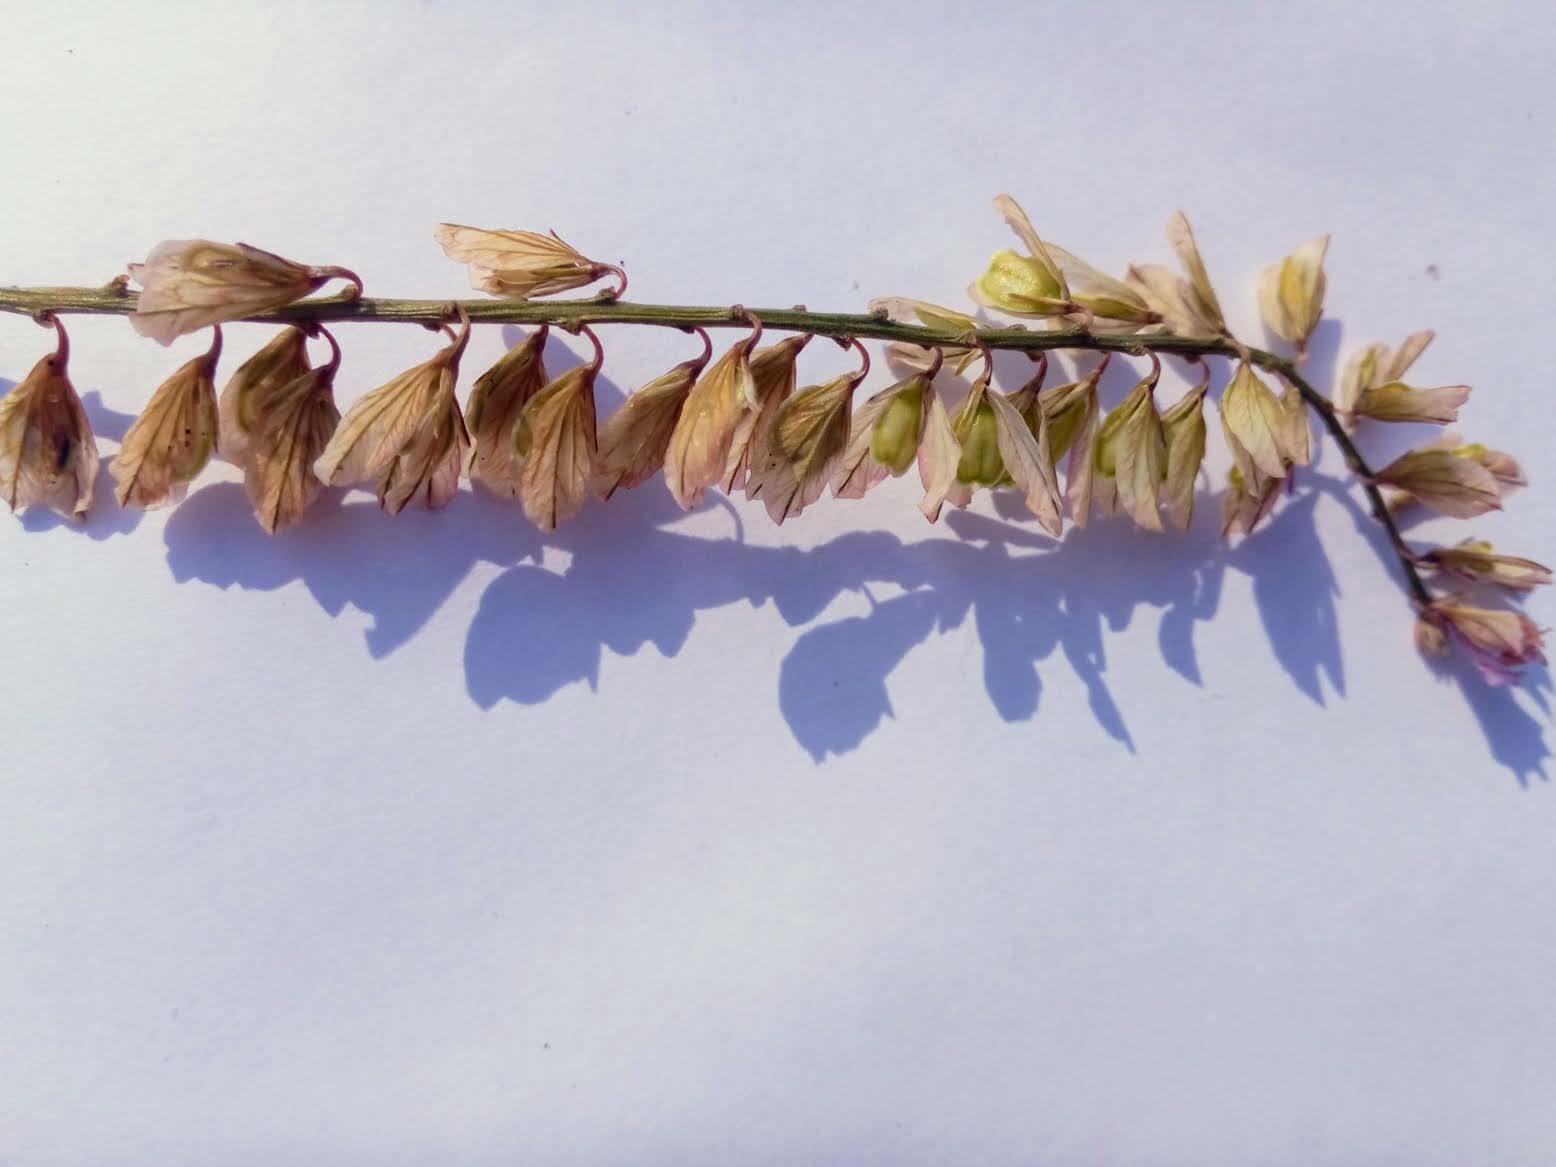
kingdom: Plantae
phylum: Tracheophyta
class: Magnoliopsida
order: Fabales
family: Polygalaceae
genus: Polygala
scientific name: Polygala comosa
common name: Tufted milkwort
